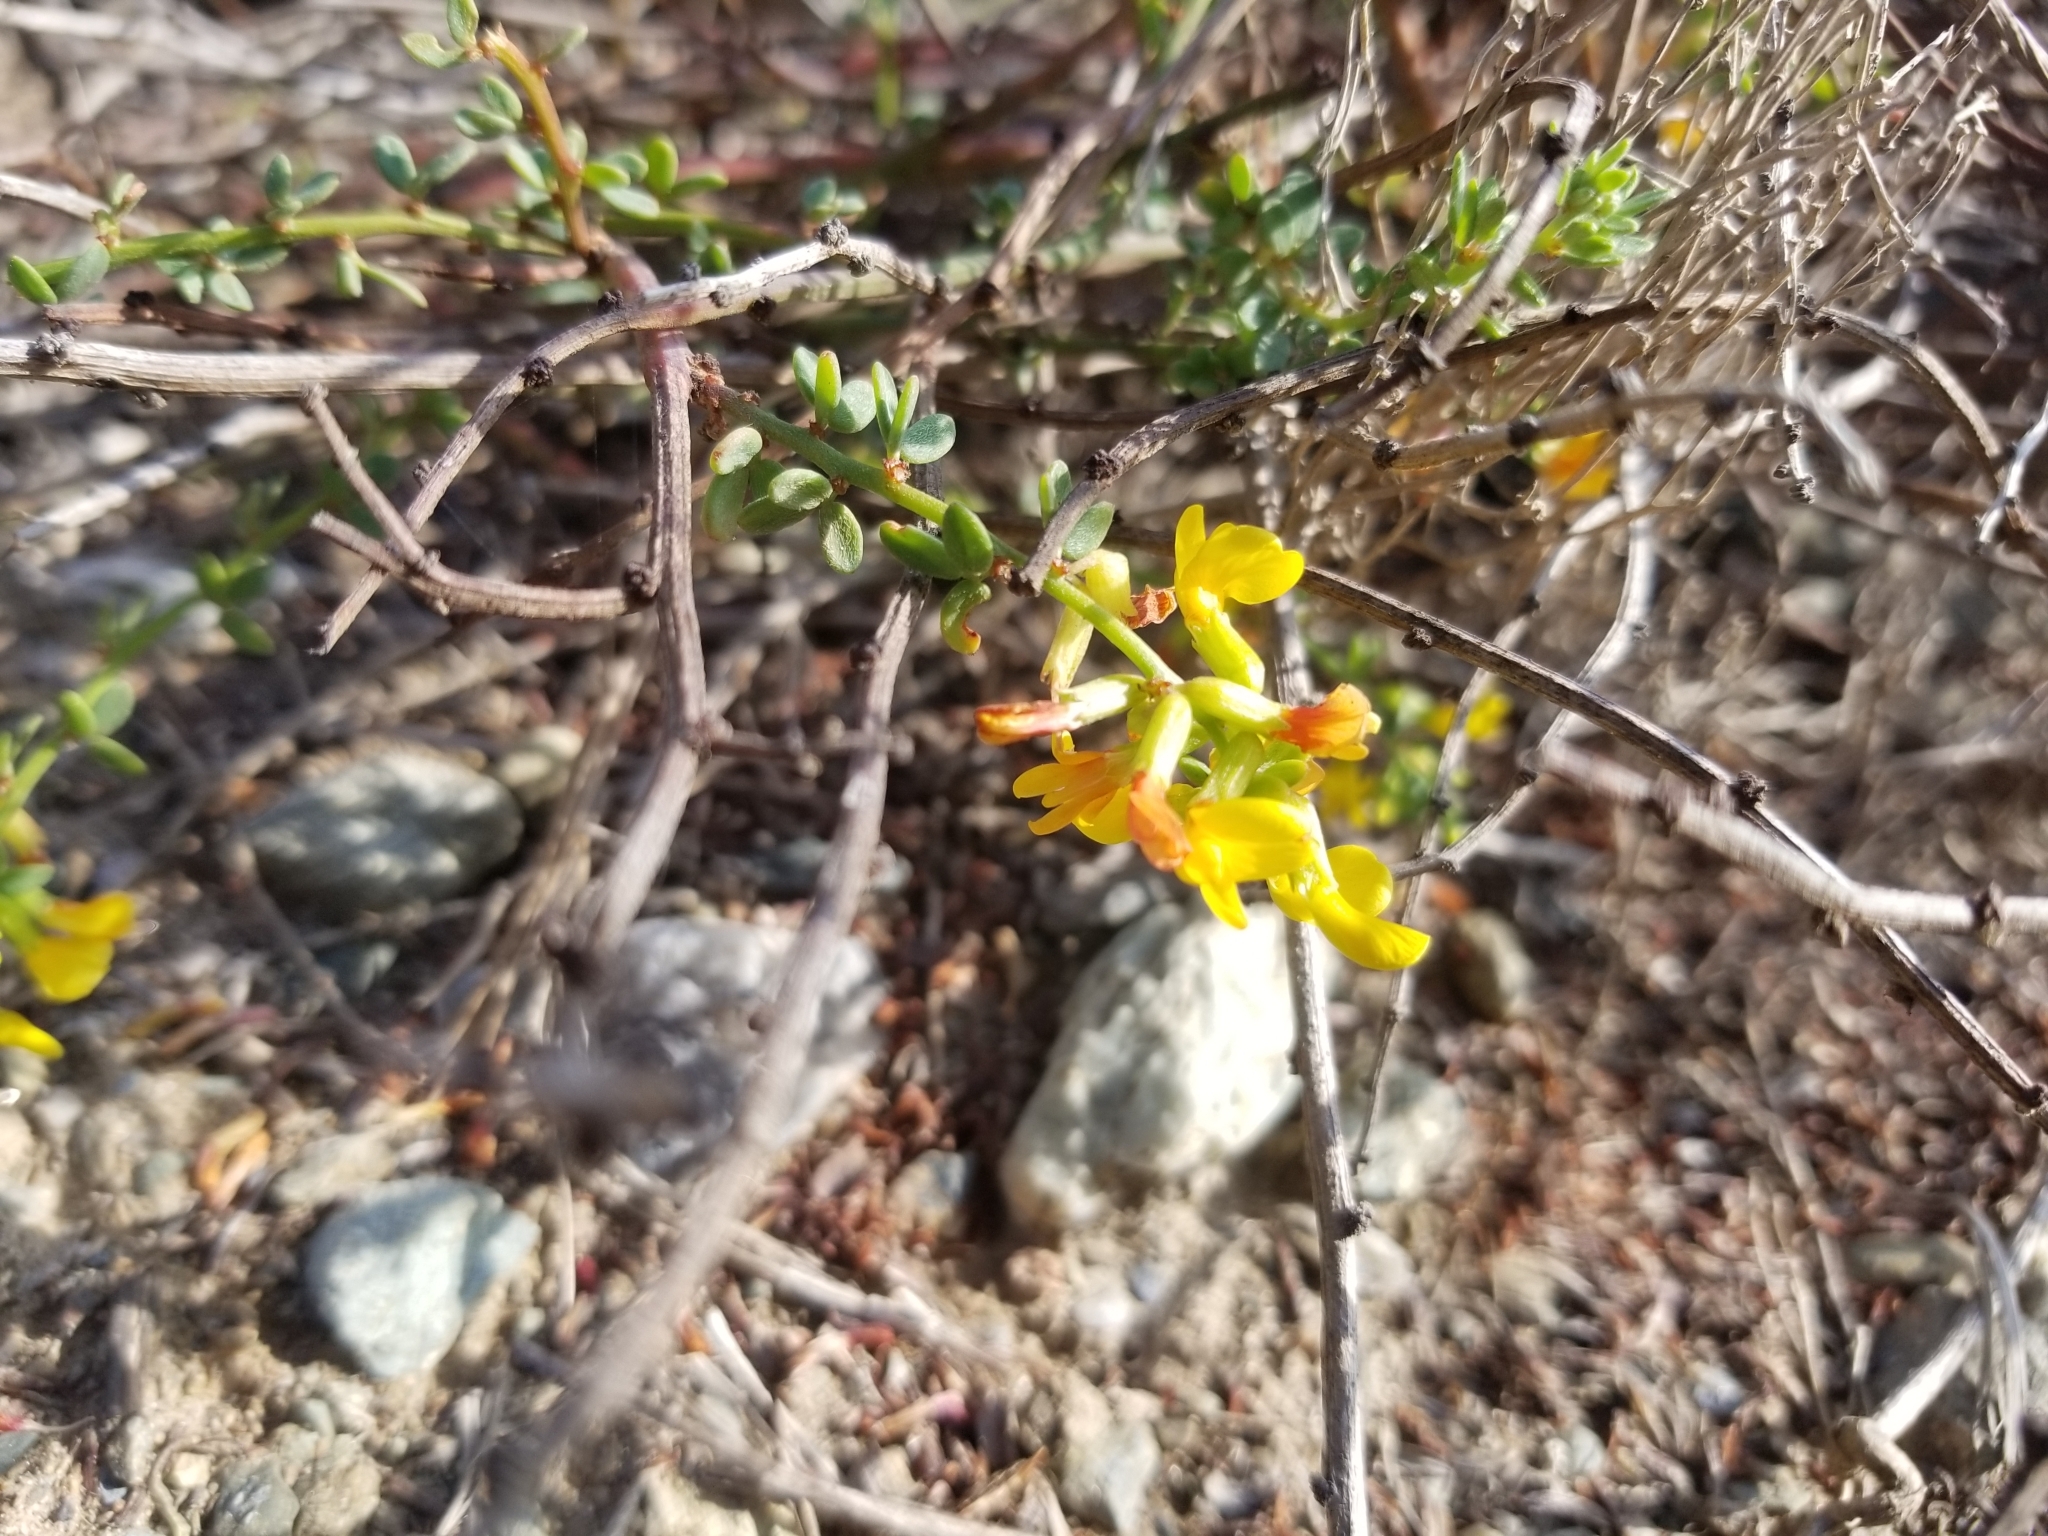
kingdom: Plantae
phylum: Tracheophyta
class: Magnoliopsida
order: Fabales
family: Fabaceae
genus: Acmispon
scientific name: Acmispon glaber
